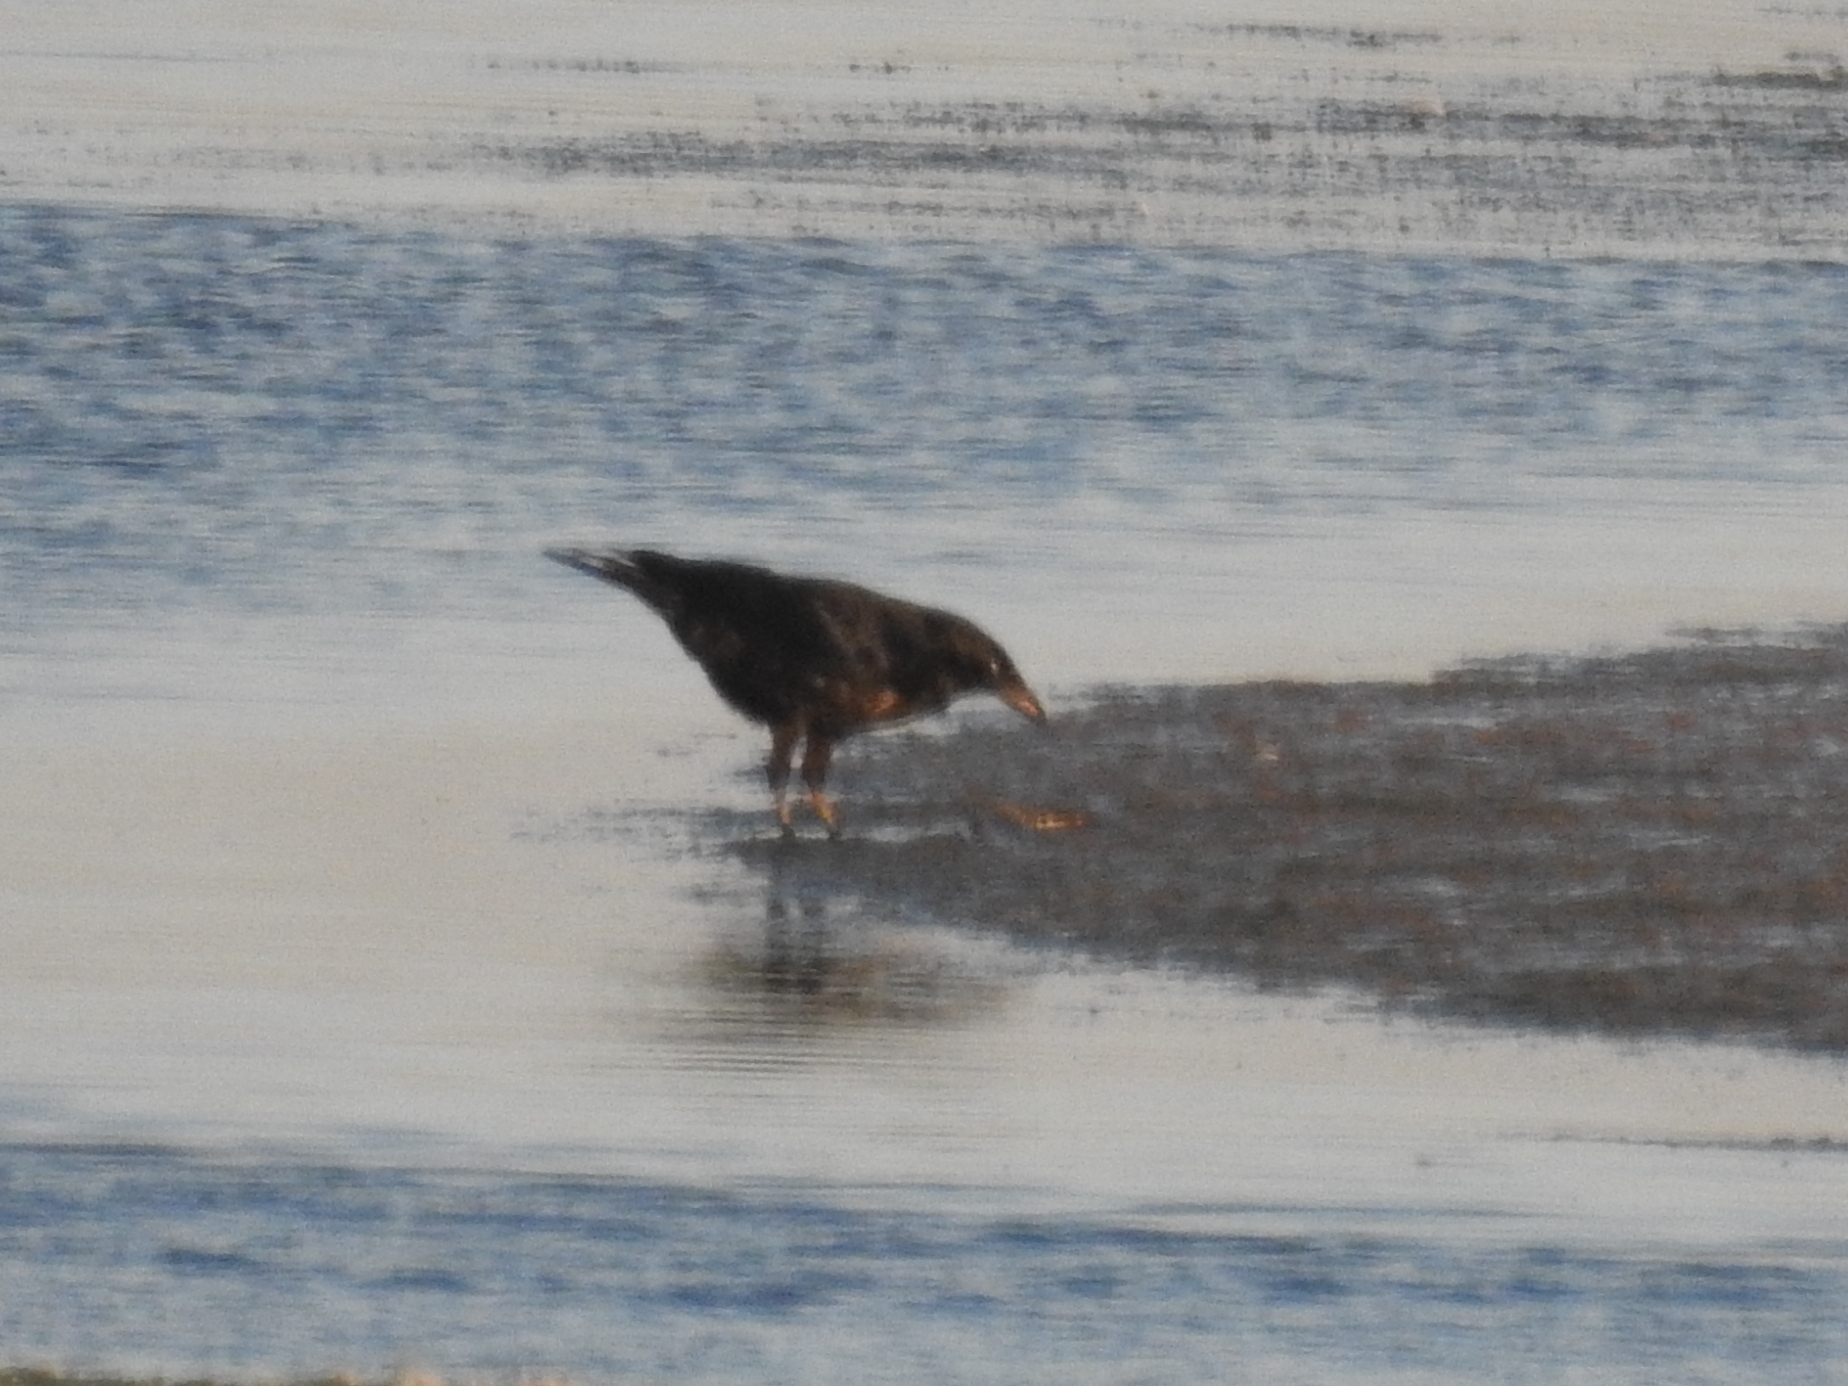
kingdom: Animalia
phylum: Chordata
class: Aves
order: Passeriformes
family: Corvidae
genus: Corvus
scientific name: Corvus corone
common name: Carrion crow
